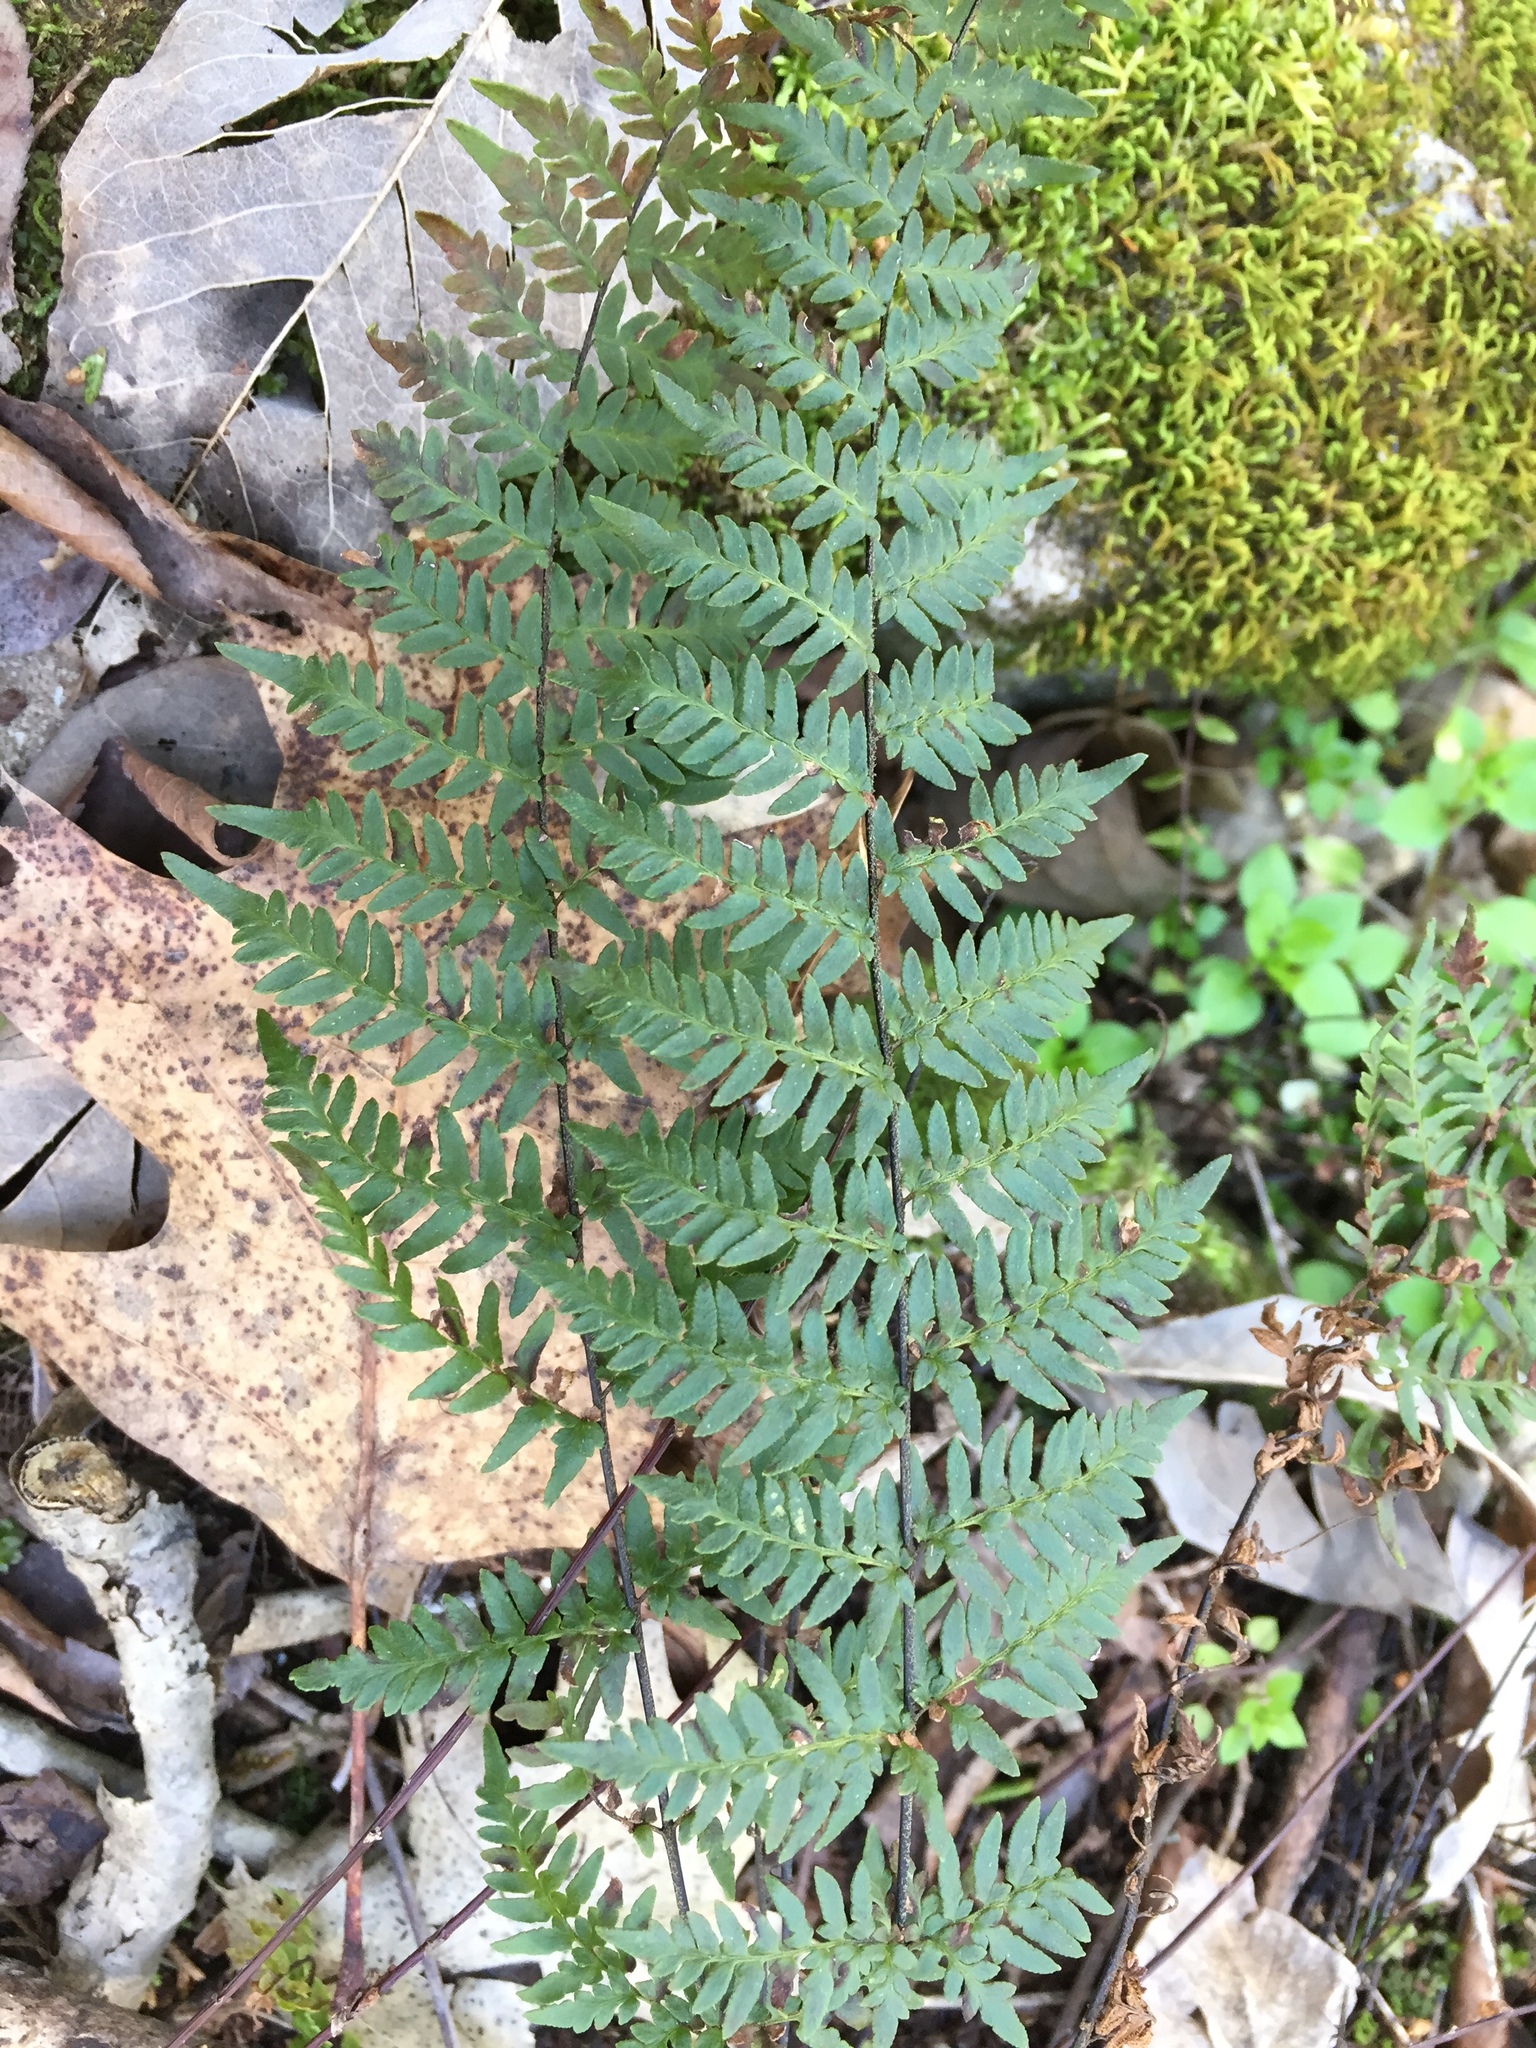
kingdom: Plantae
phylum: Tracheophyta
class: Polypodiopsida
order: Polypodiales
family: Pteridaceae
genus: Myriopteris
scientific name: Myriopteris alabamensis
